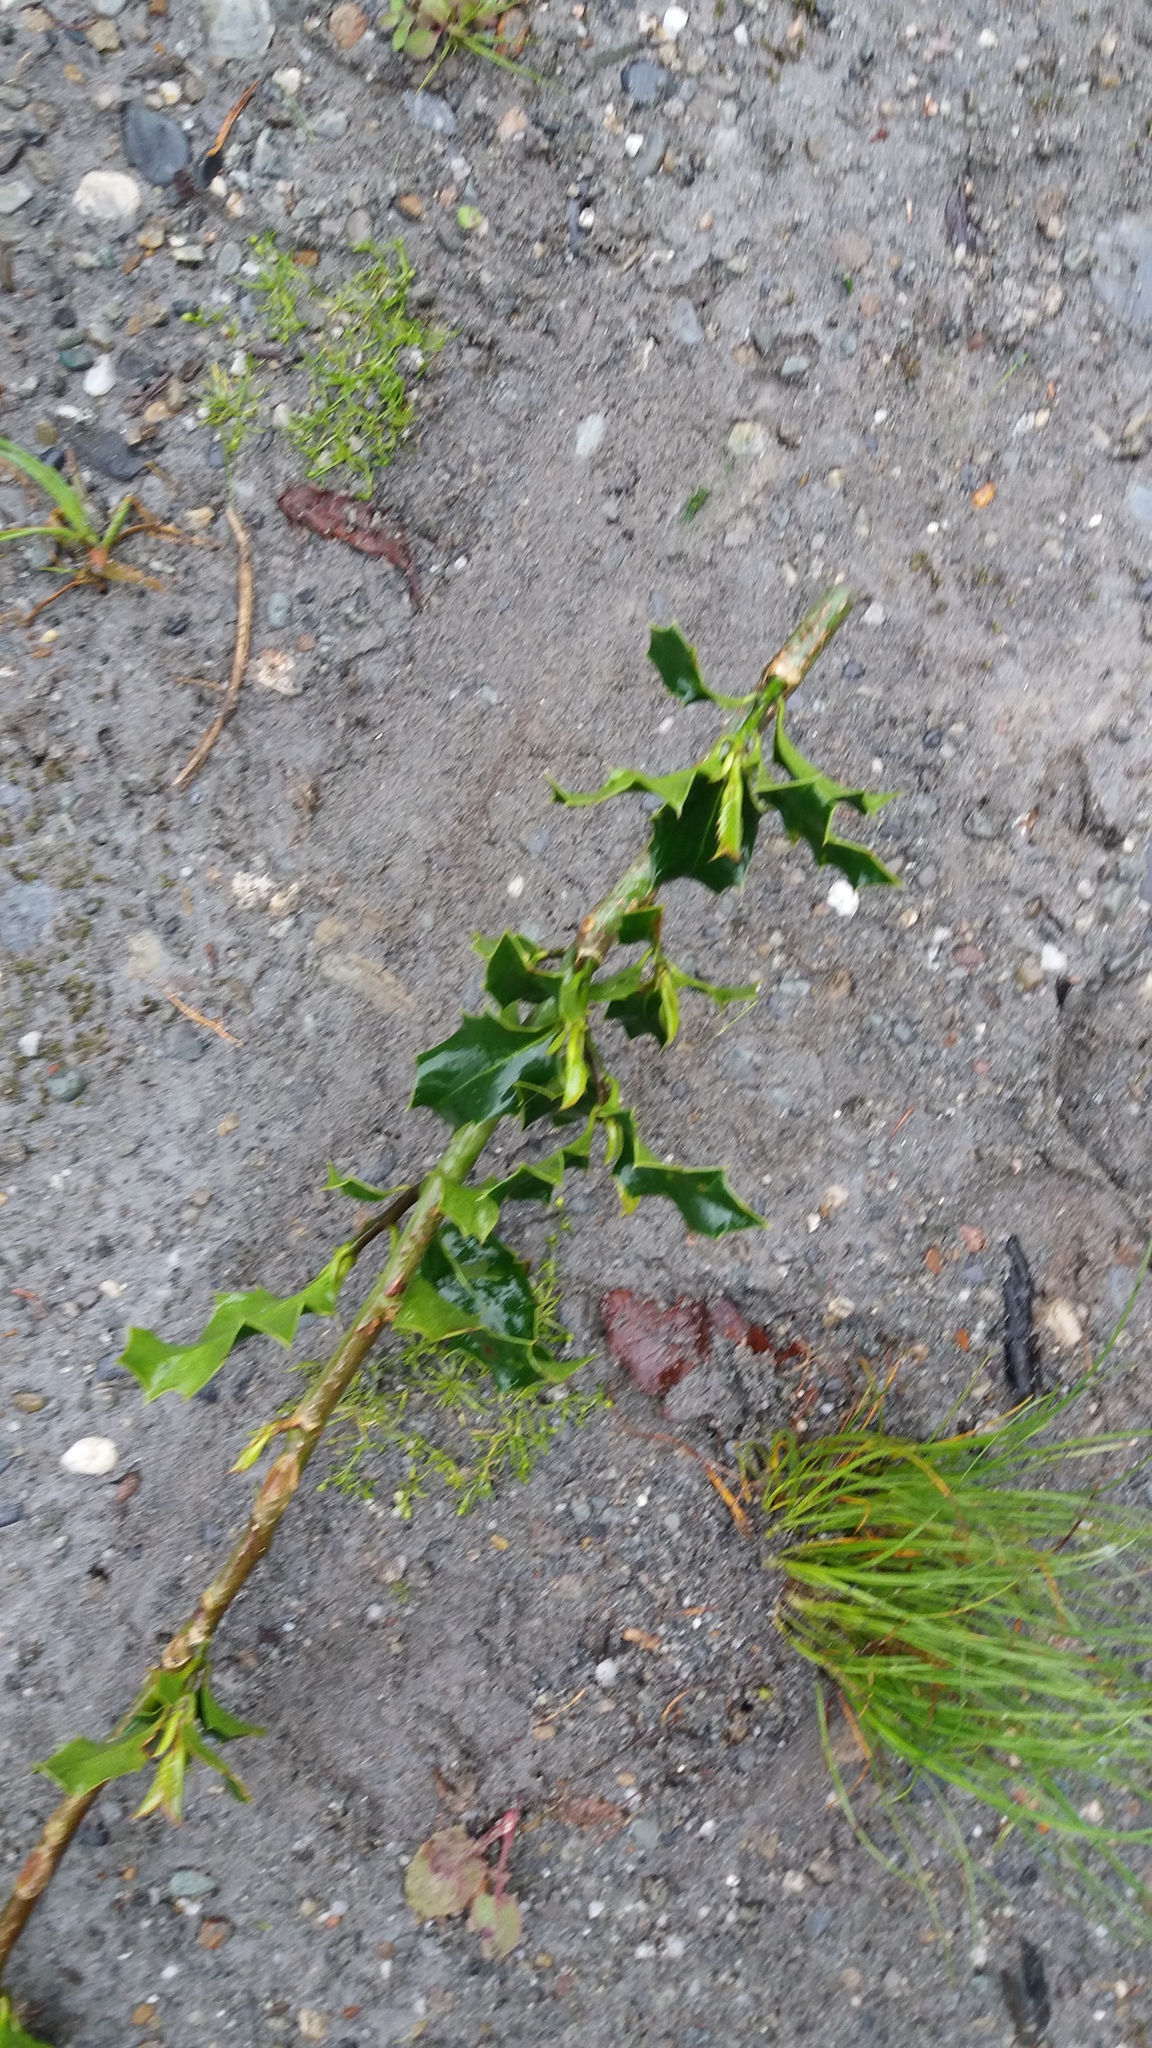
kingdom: Plantae
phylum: Tracheophyta
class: Magnoliopsida
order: Aquifoliales
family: Aquifoliaceae
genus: Ilex
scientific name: Ilex aquifolium
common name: English holly
